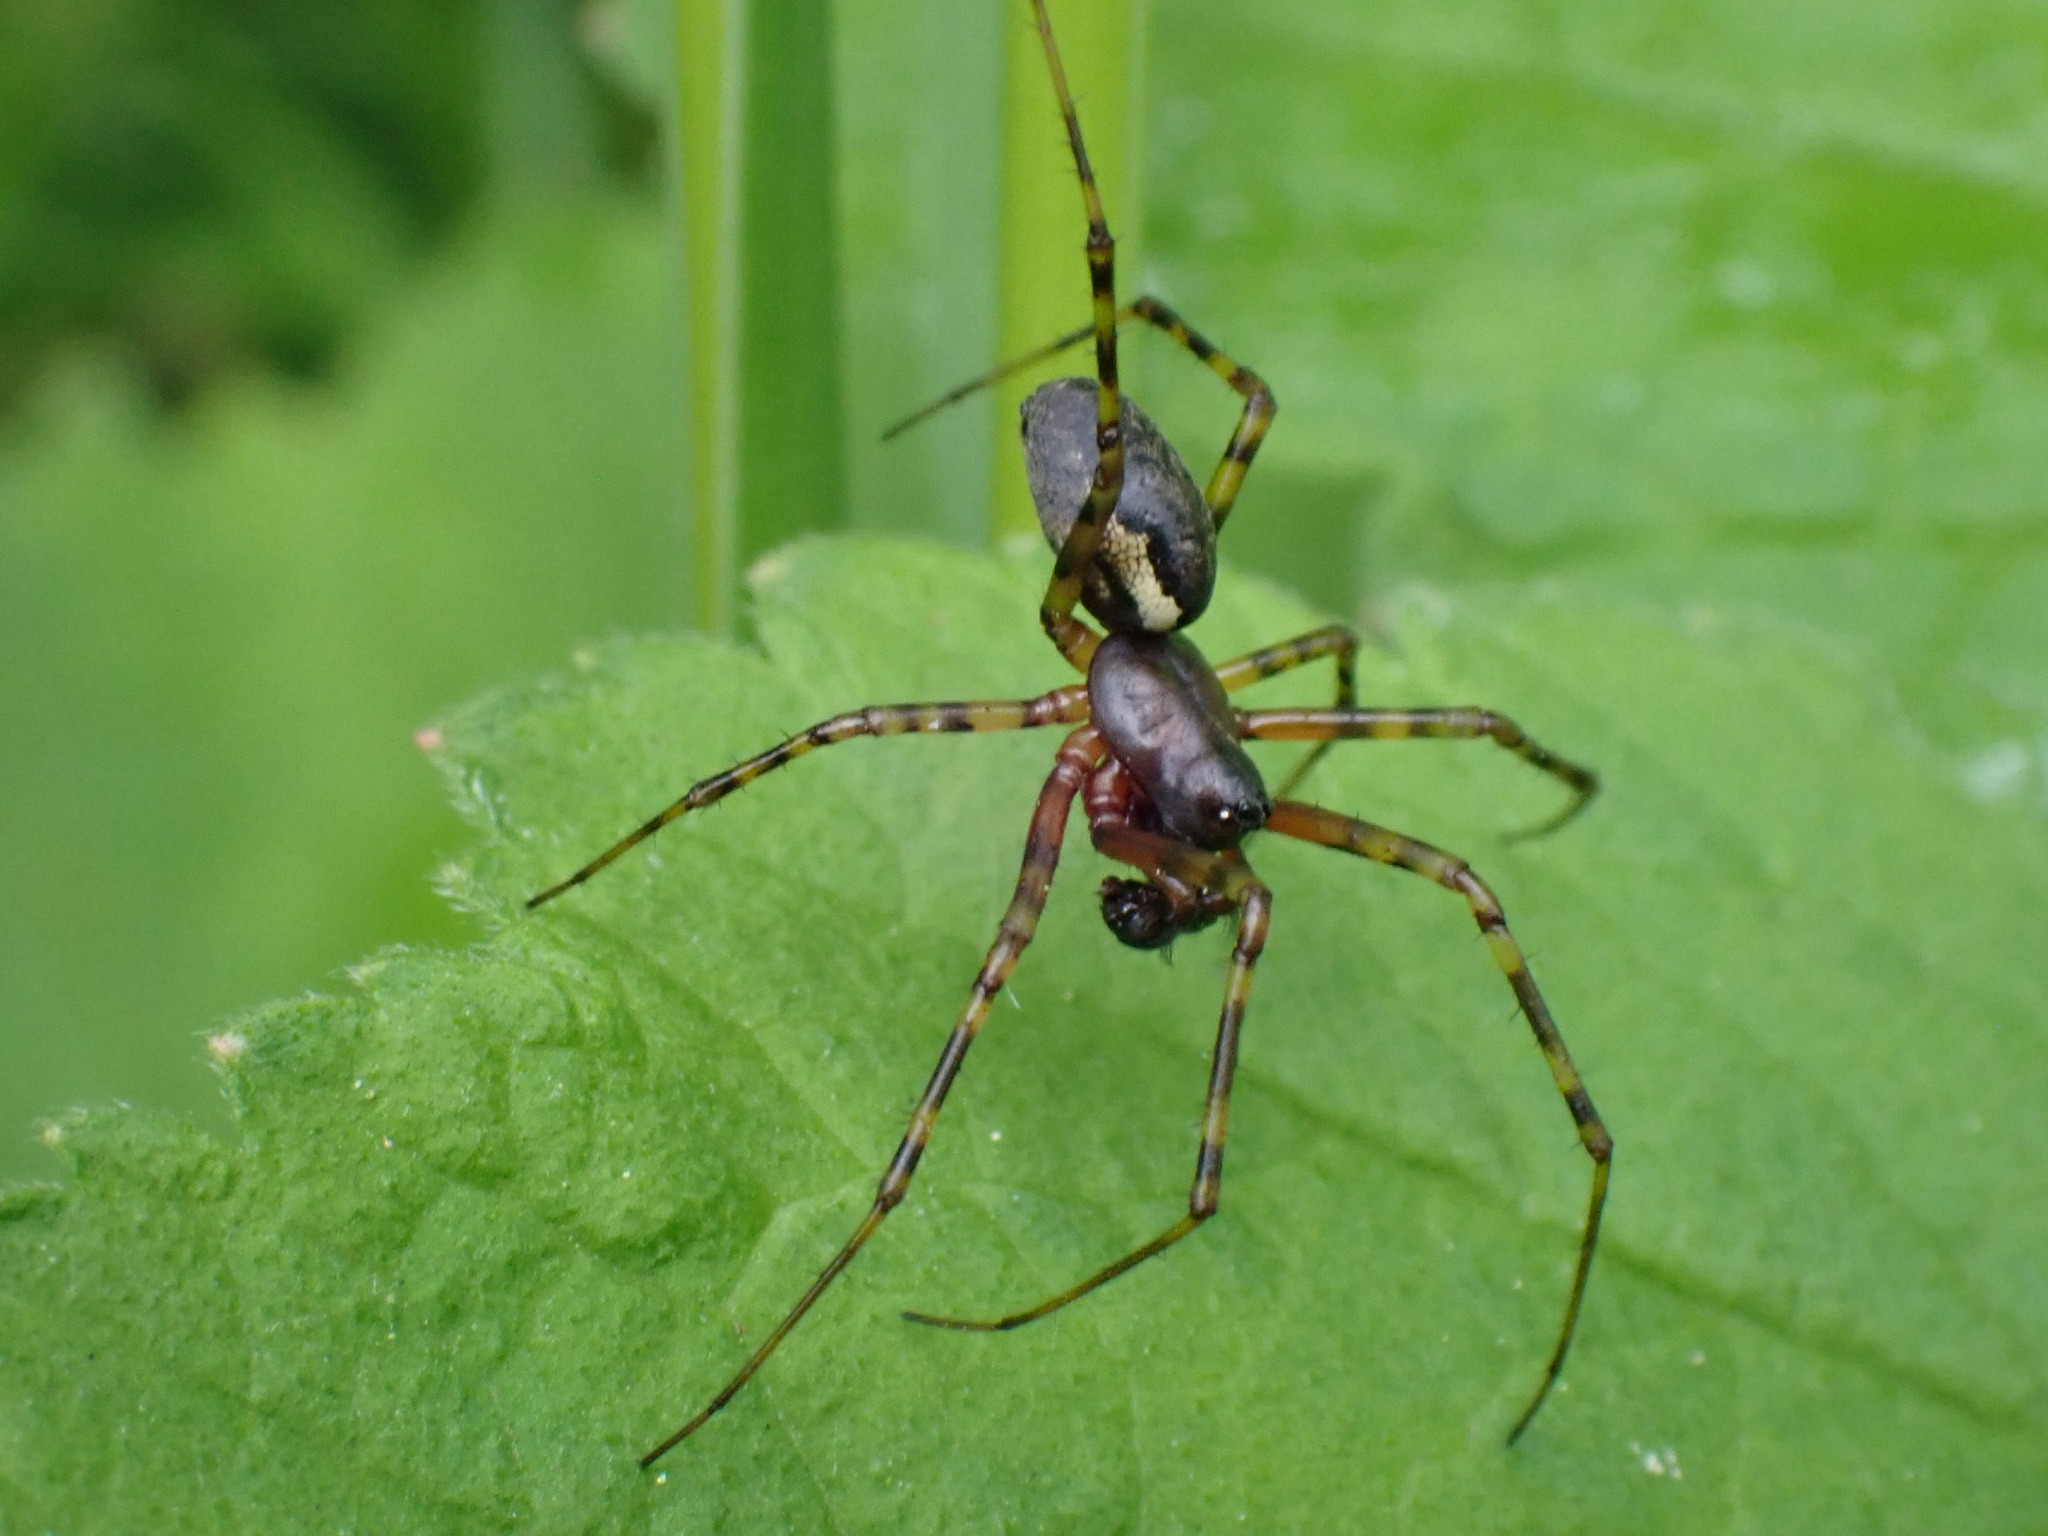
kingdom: Animalia
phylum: Arthropoda
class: Arachnida
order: Araneae
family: Linyphiidae
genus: Neriene
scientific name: Neriene montana
